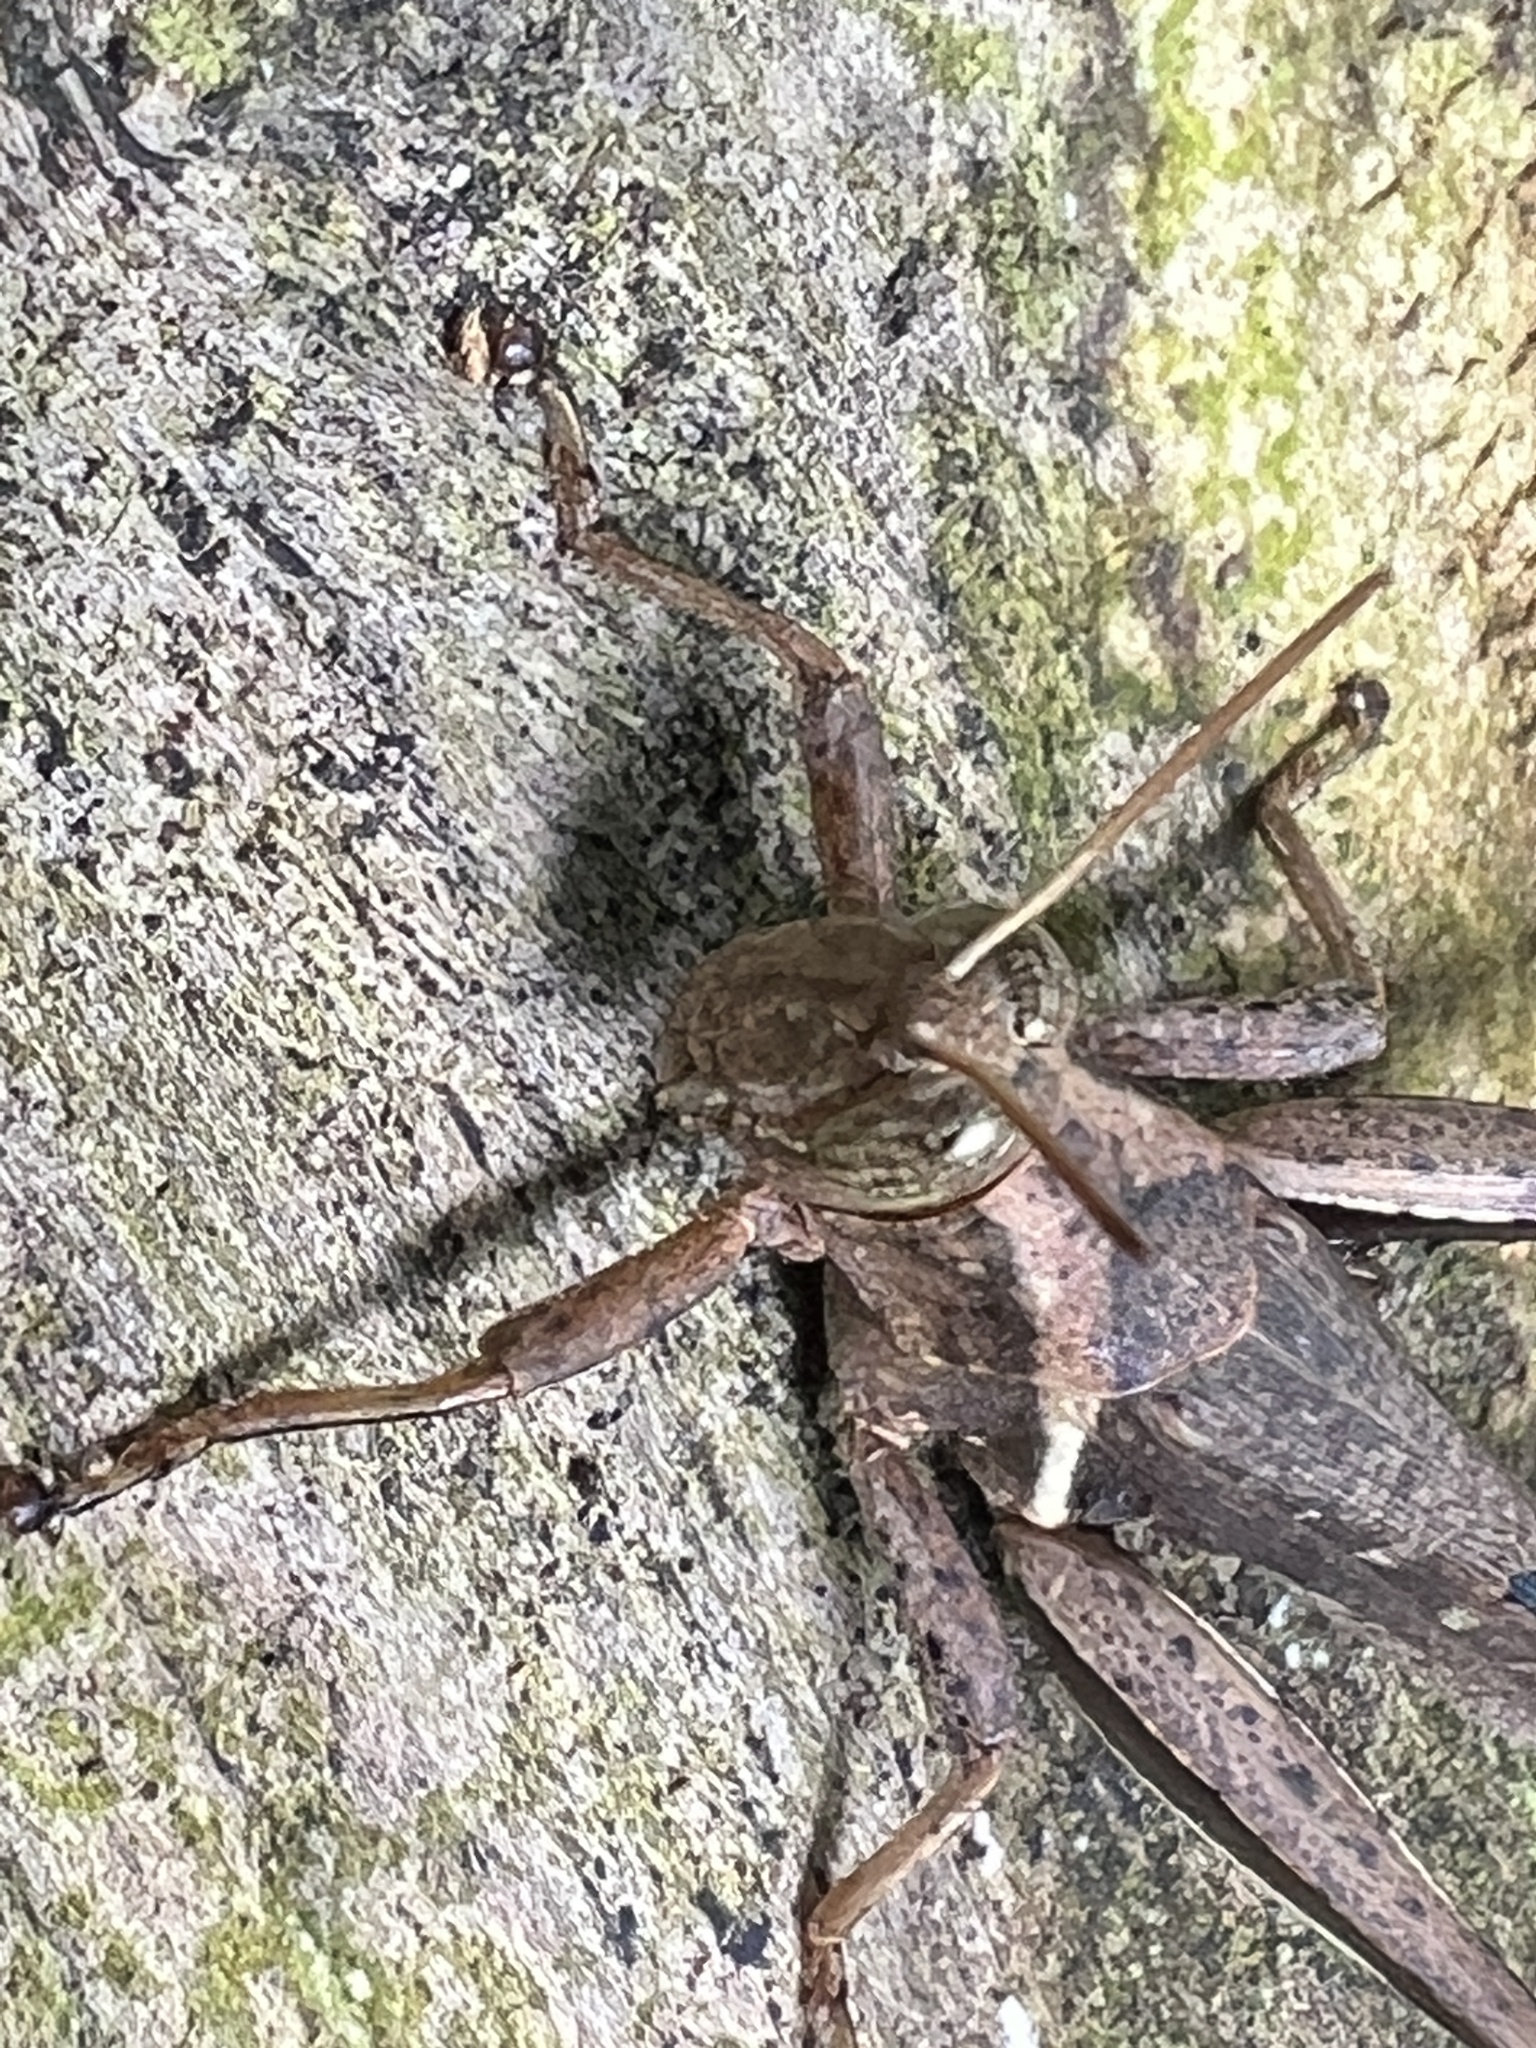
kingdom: Animalia
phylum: Arthropoda
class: Insecta
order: Orthoptera
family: Acrididae
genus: Abracris
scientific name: Abracris flavolineata
